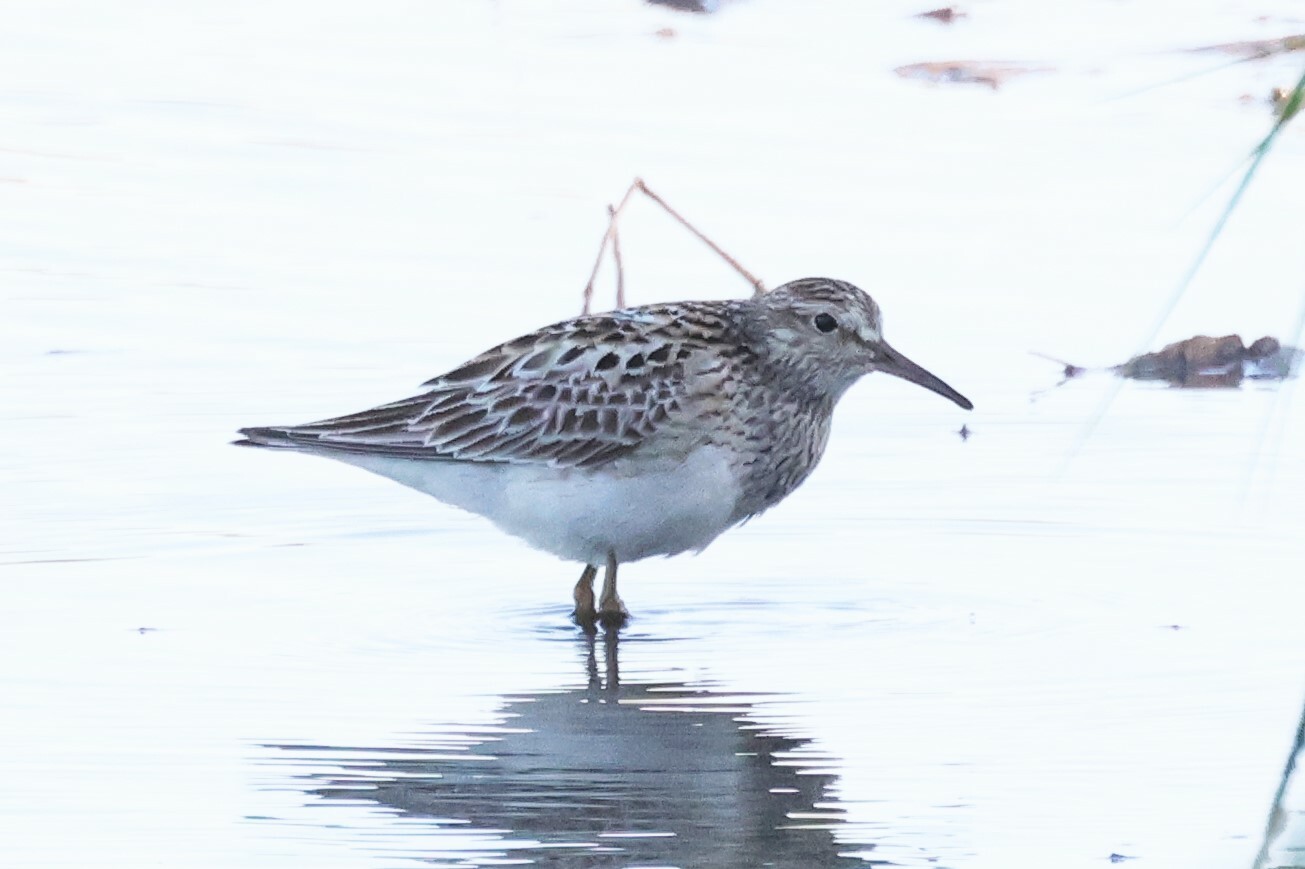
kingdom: Animalia
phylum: Chordata
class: Aves
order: Charadriiformes
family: Scolopacidae
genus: Calidris
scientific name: Calidris melanotos
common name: Pectoral sandpiper
